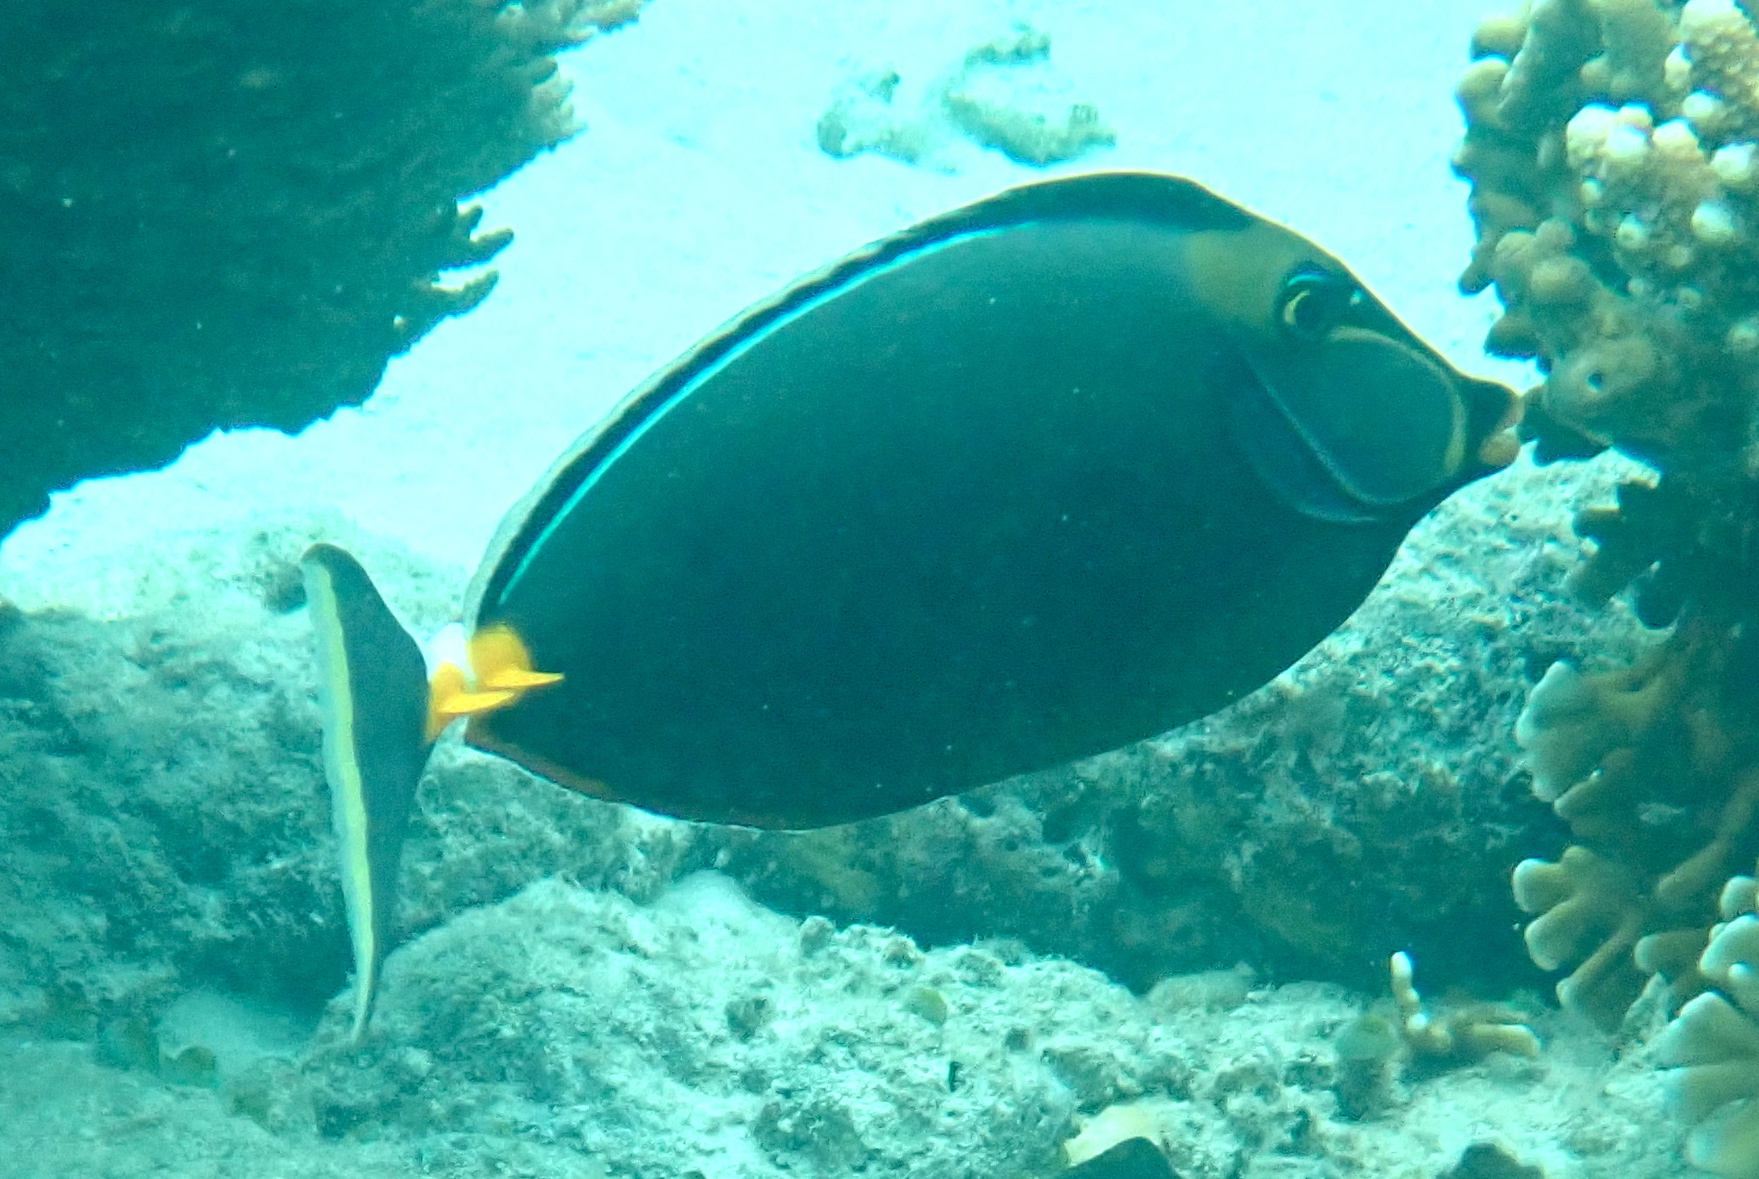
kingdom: Animalia
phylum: Chordata
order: Perciformes
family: Acanthuridae
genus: Naso
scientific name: Naso lituratus
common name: Orangespine unicornfish
